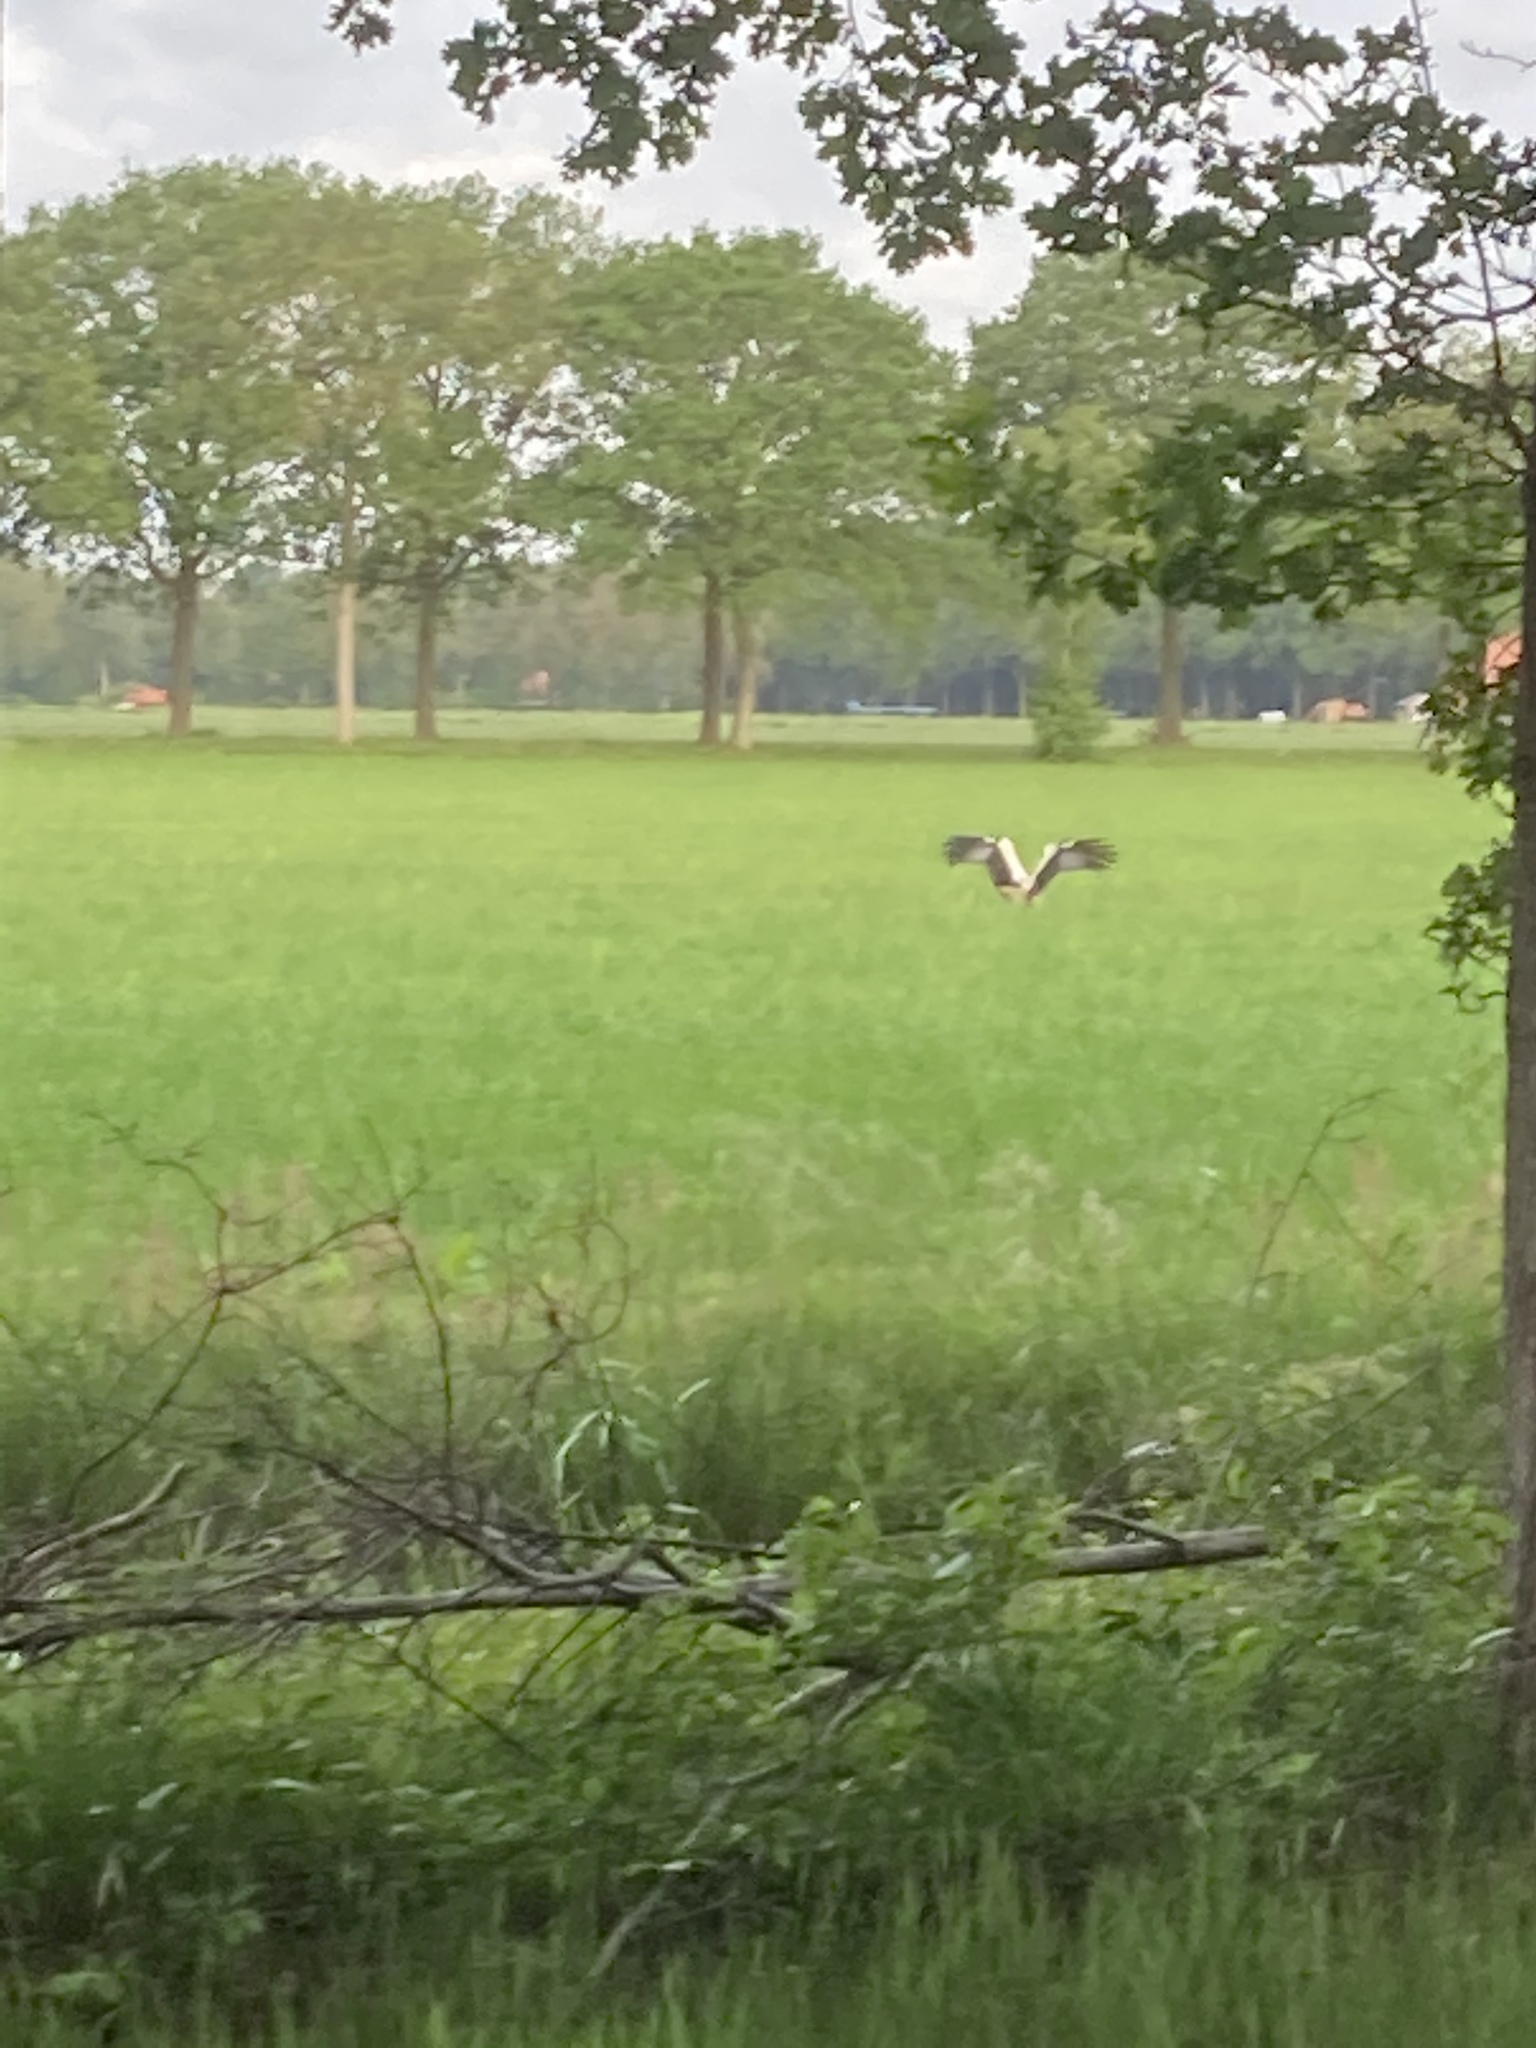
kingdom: Animalia
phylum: Chordata
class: Aves
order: Ciconiiformes
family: Ciconiidae
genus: Ciconia
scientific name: Ciconia ciconia
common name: White stork
